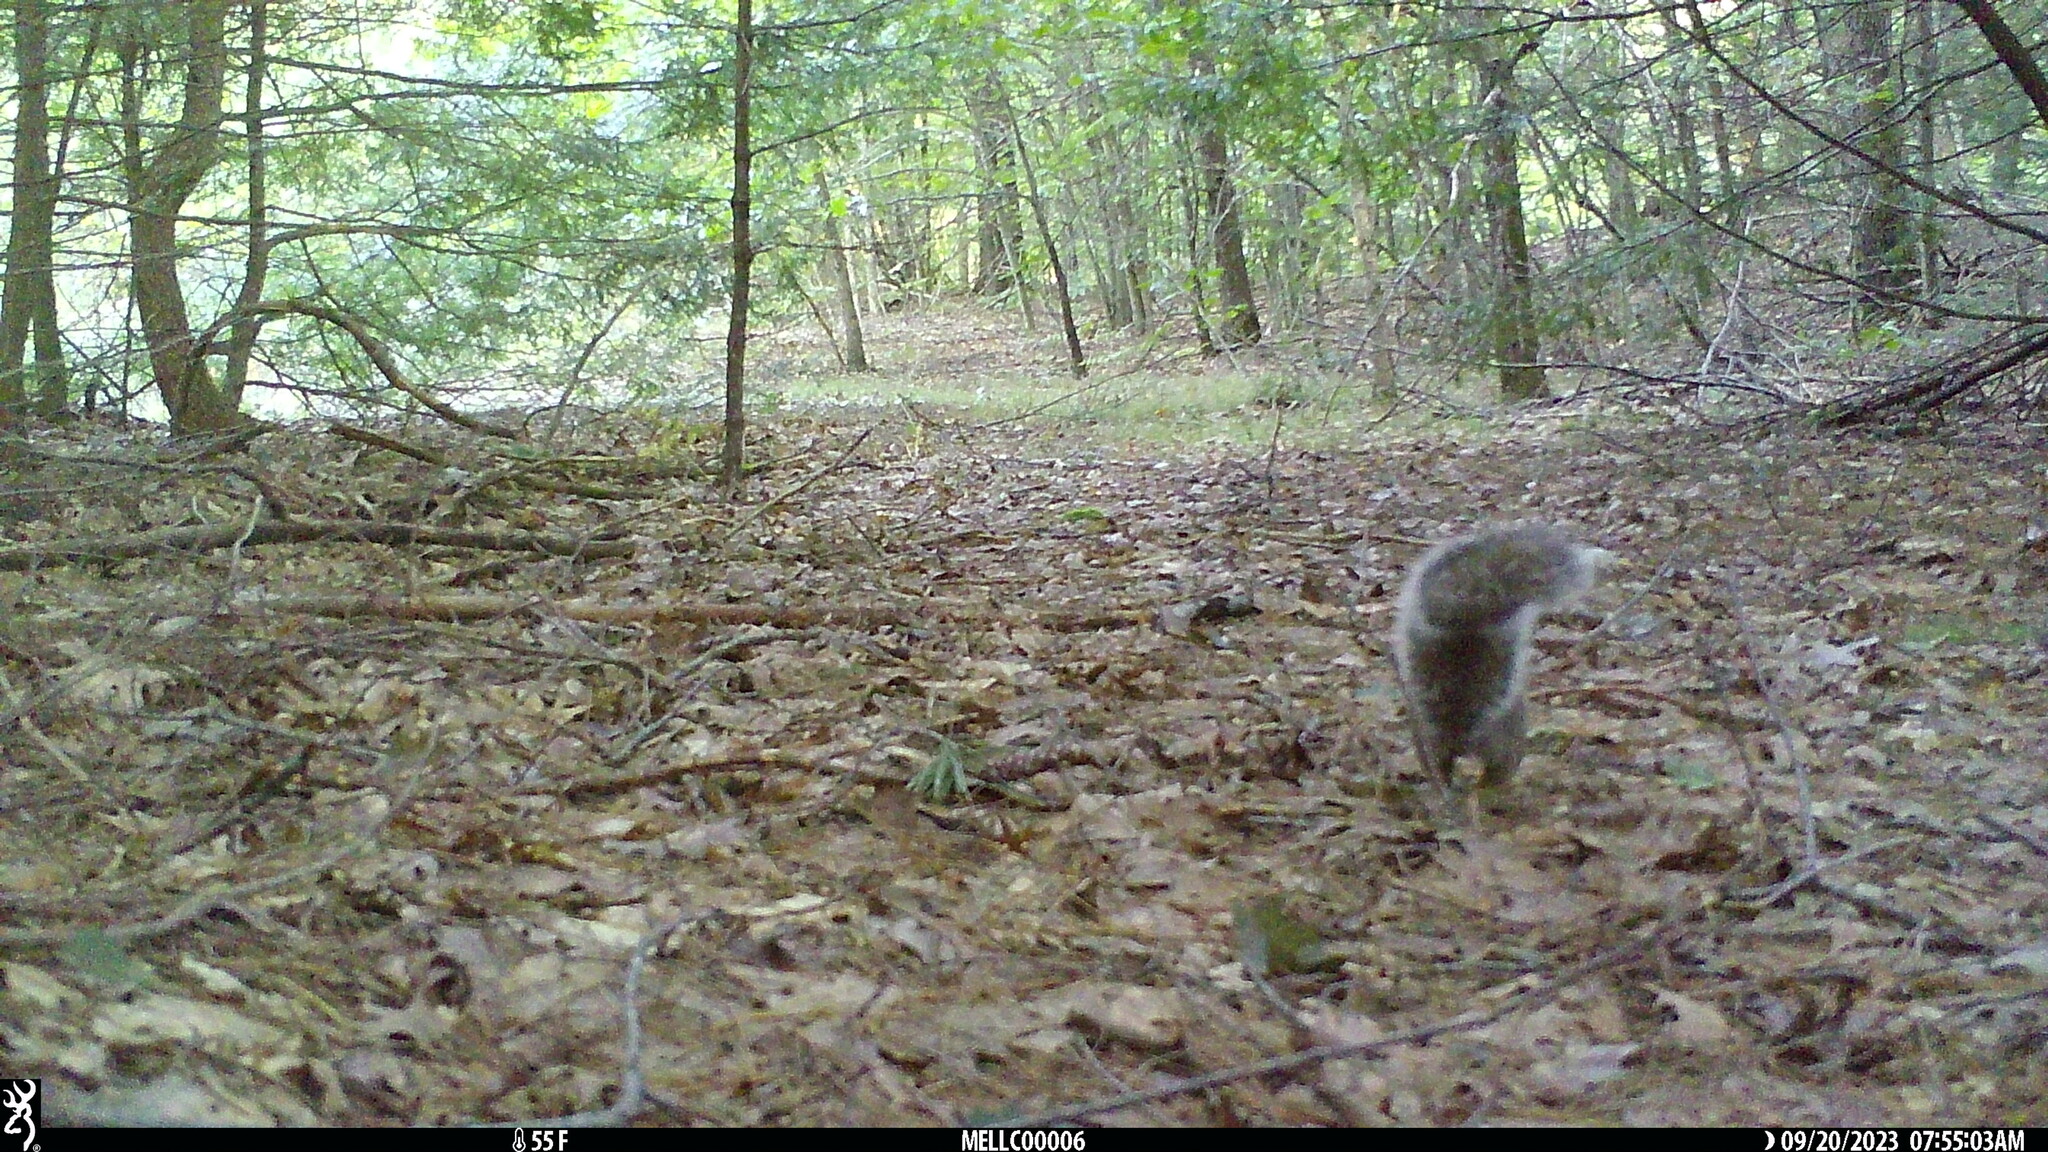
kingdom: Animalia
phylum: Chordata
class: Mammalia
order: Rodentia
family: Sciuridae
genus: Sciurus
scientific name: Sciurus carolinensis
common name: Eastern gray squirrel
